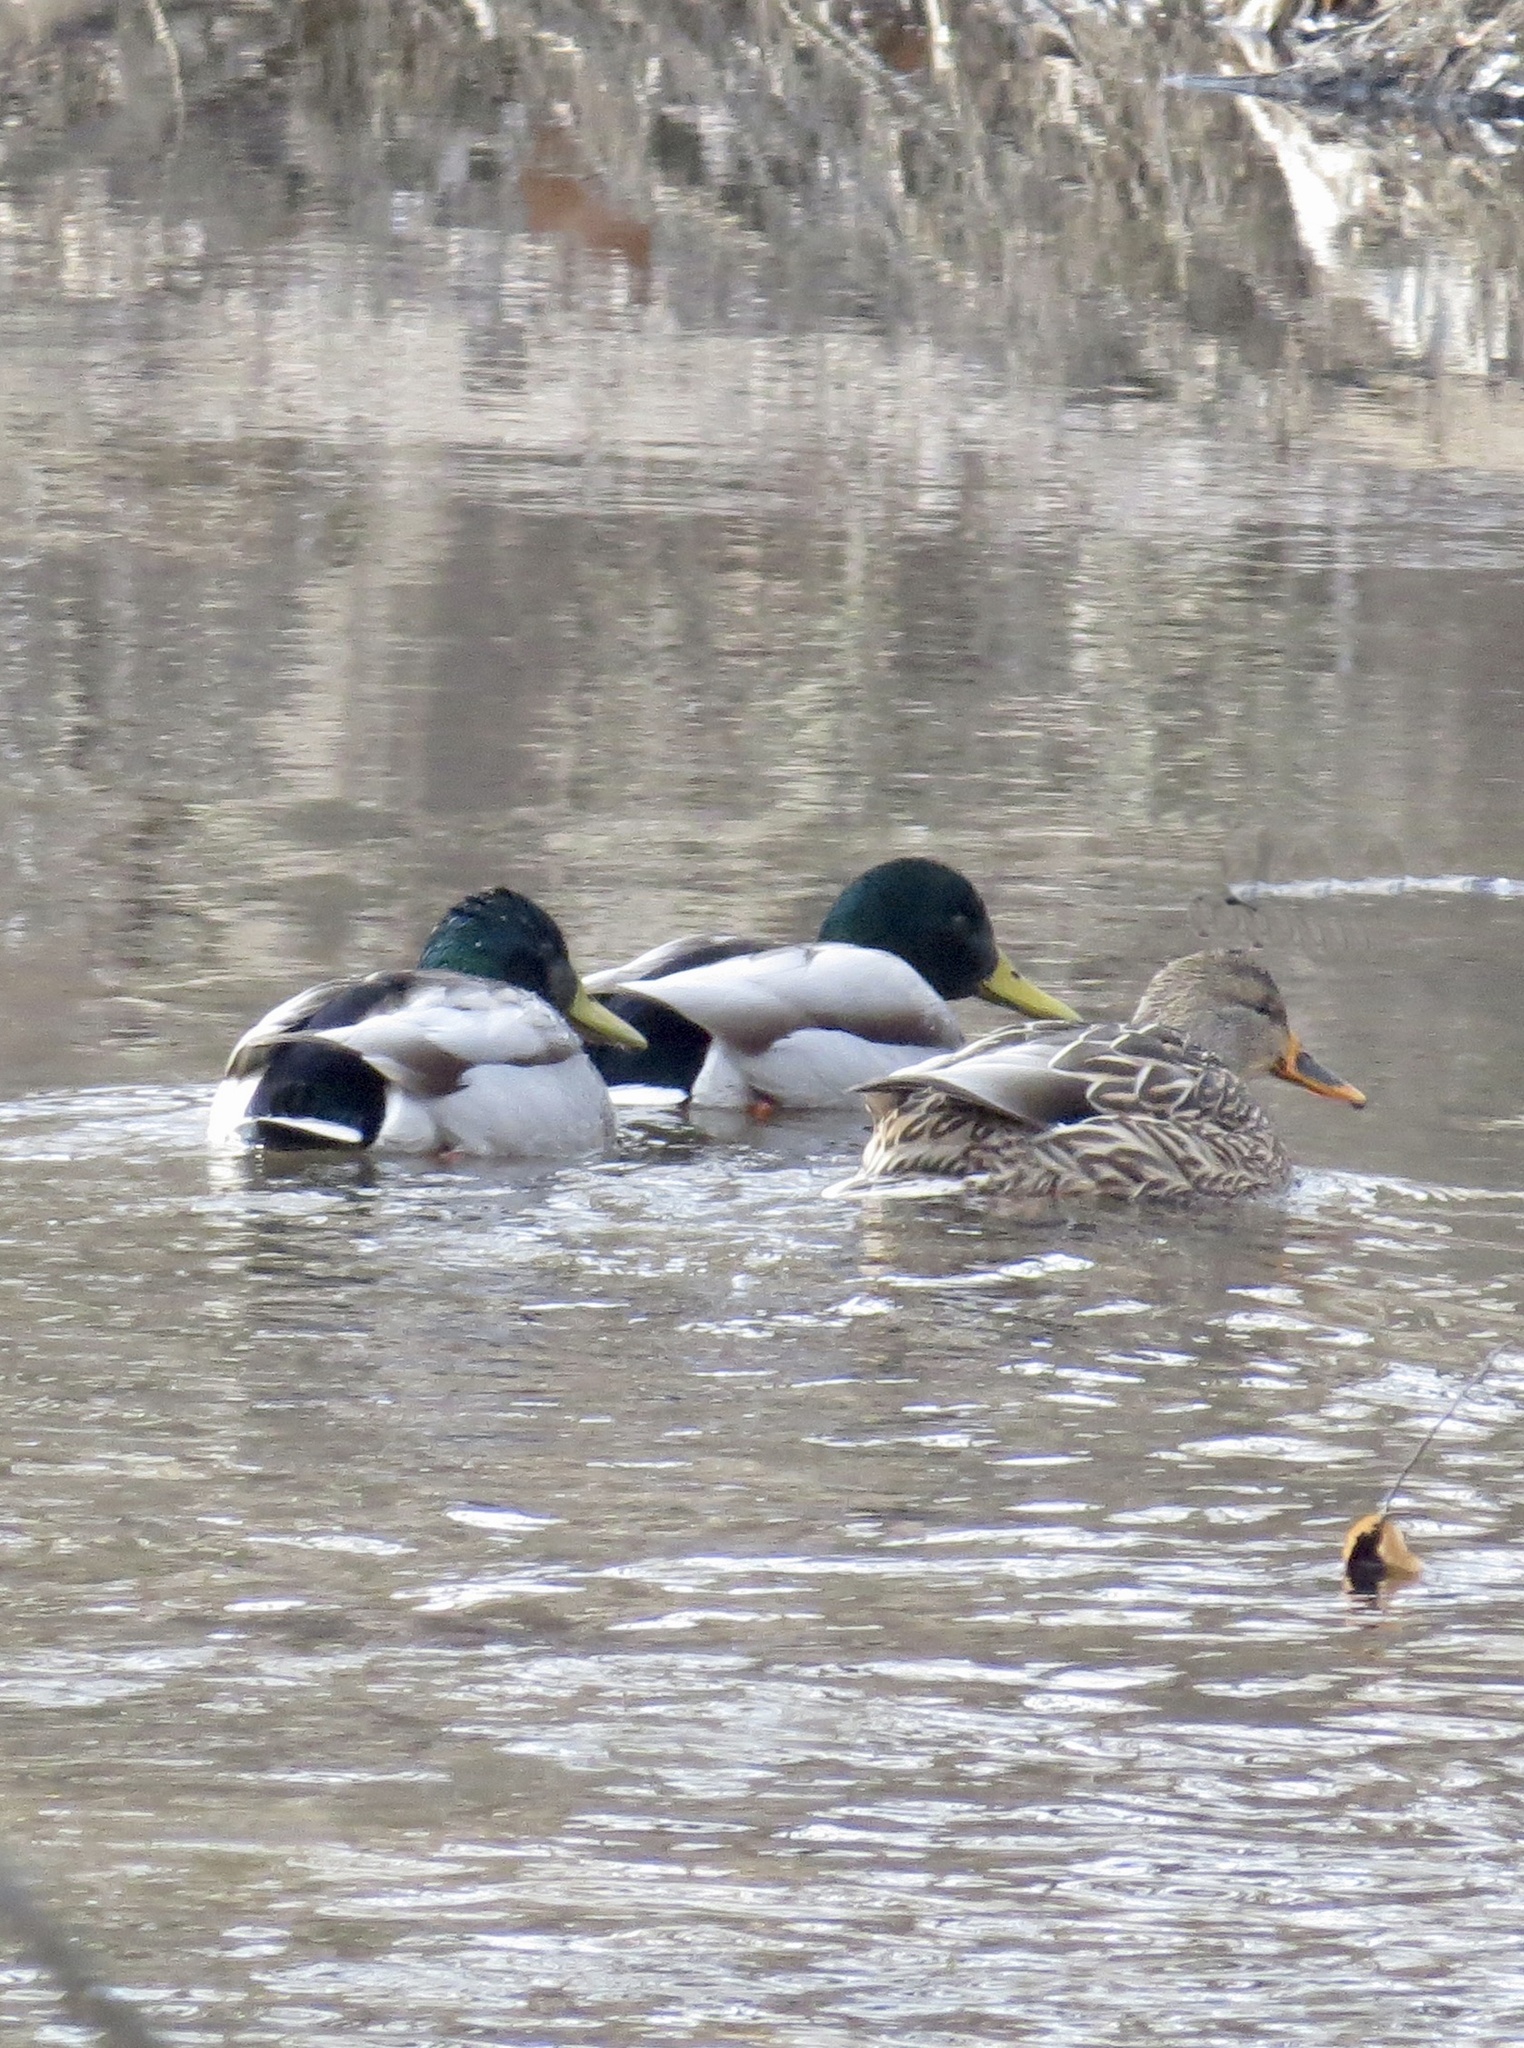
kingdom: Animalia
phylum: Chordata
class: Aves
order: Anseriformes
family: Anatidae
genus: Anas
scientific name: Anas platyrhynchos
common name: Mallard
